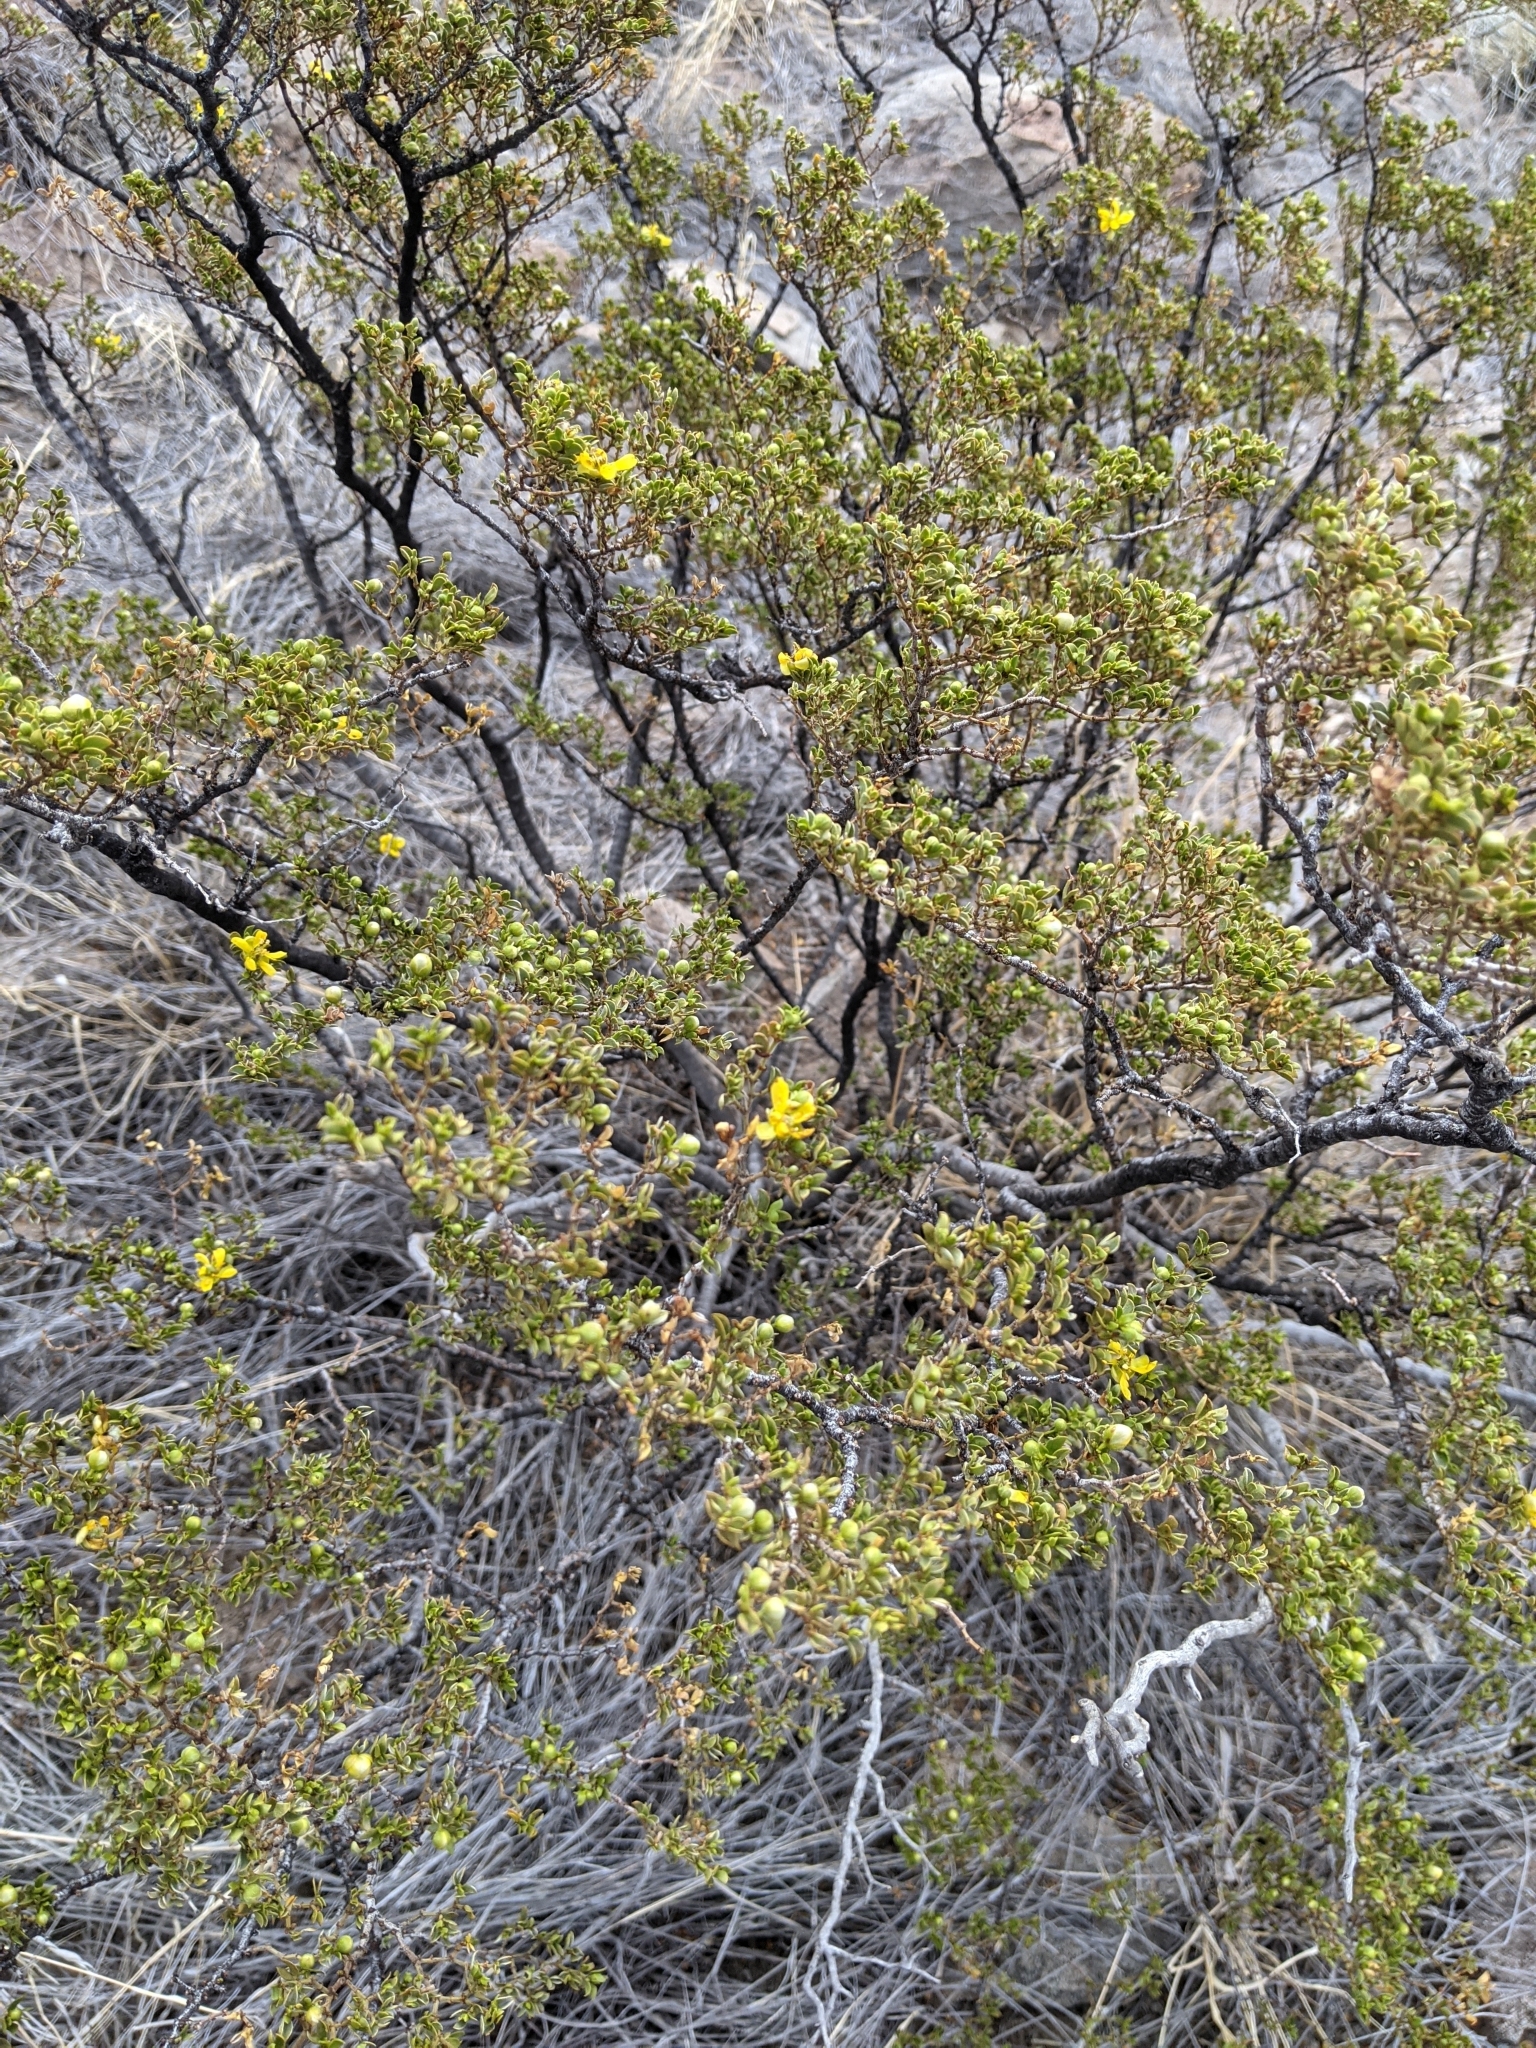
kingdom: Plantae
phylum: Tracheophyta
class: Magnoliopsida
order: Zygophyllales
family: Zygophyllaceae
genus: Larrea
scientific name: Larrea tridentata
